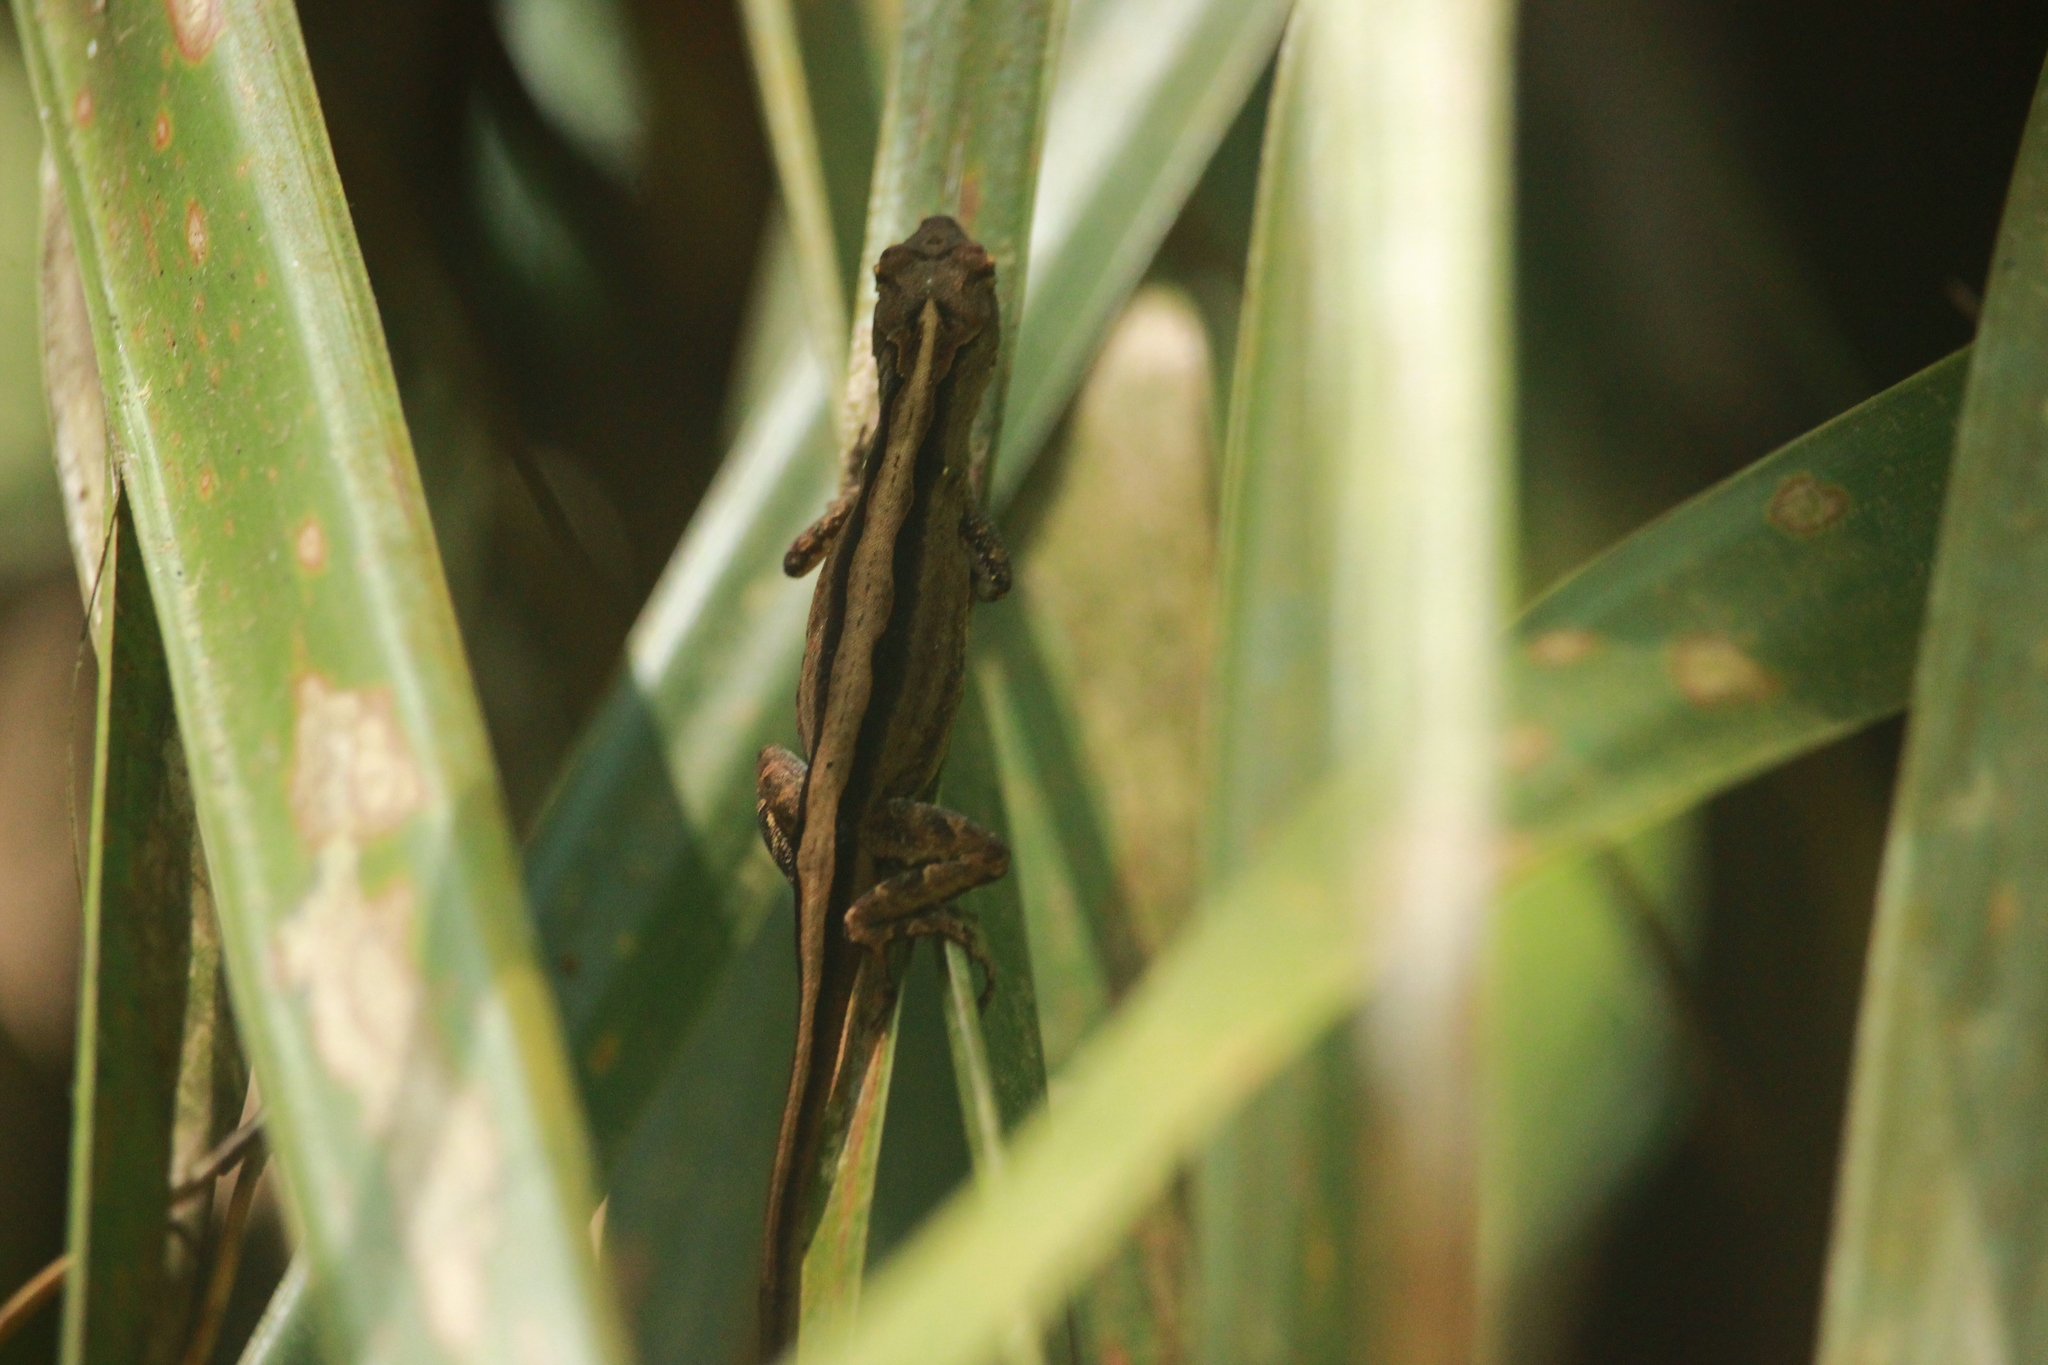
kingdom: Animalia
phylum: Chordata
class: Squamata
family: Dactyloidae
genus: Anolis
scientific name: Anolis sagrei
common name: Brown anole
